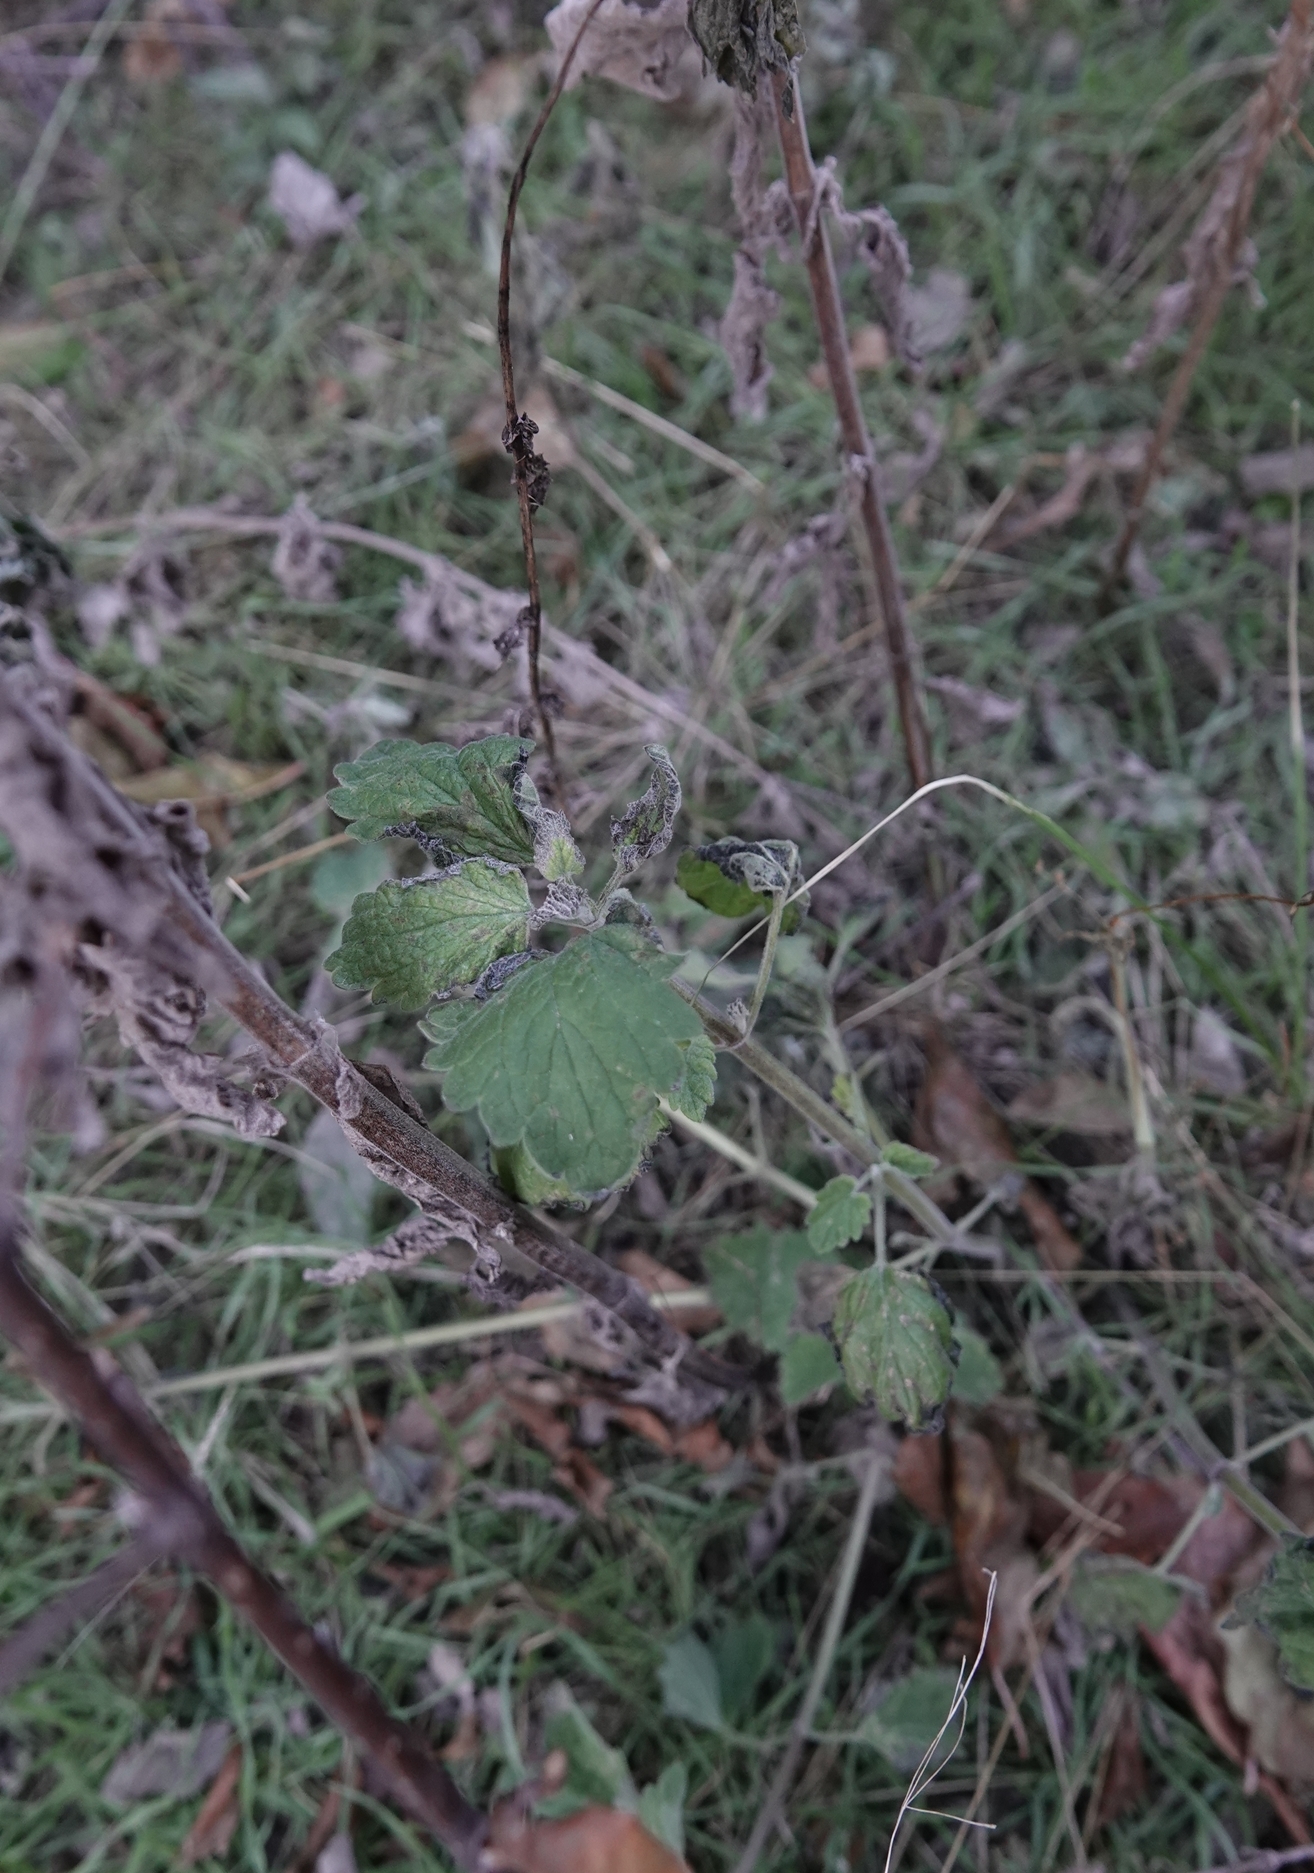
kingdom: Plantae
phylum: Tracheophyta
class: Magnoliopsida
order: Lamiales
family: Lamiaceae
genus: Nepeta
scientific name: Nepeta cataria
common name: Catnip
